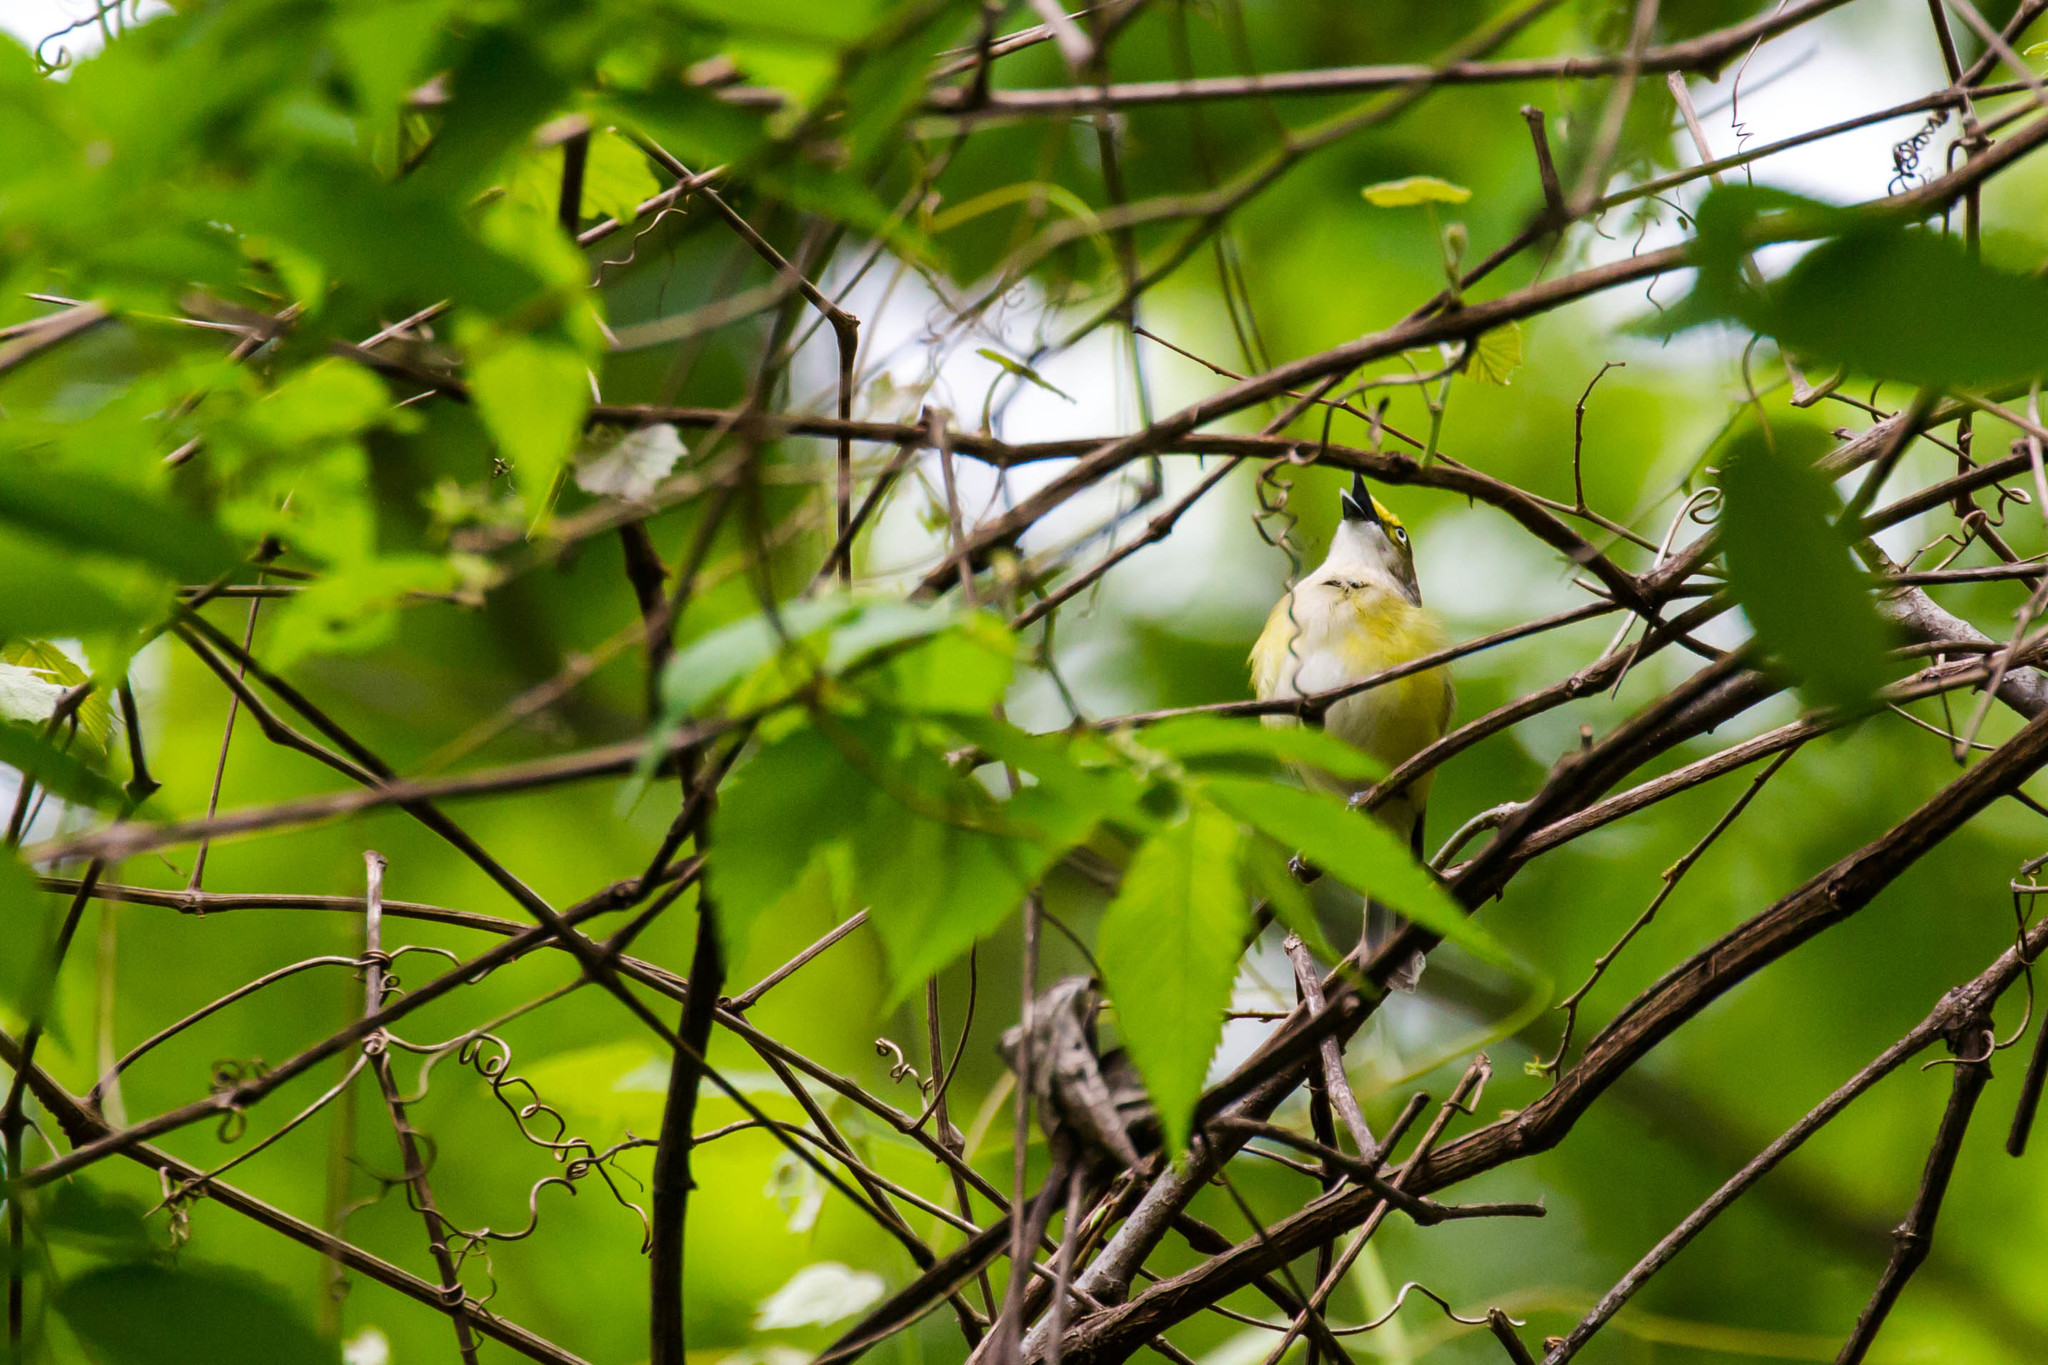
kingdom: Animalia
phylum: Chordata
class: Aves
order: Passeriformes
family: Vireonidae
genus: Vireo
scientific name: Vireo griseus
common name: White-eyed vireo
